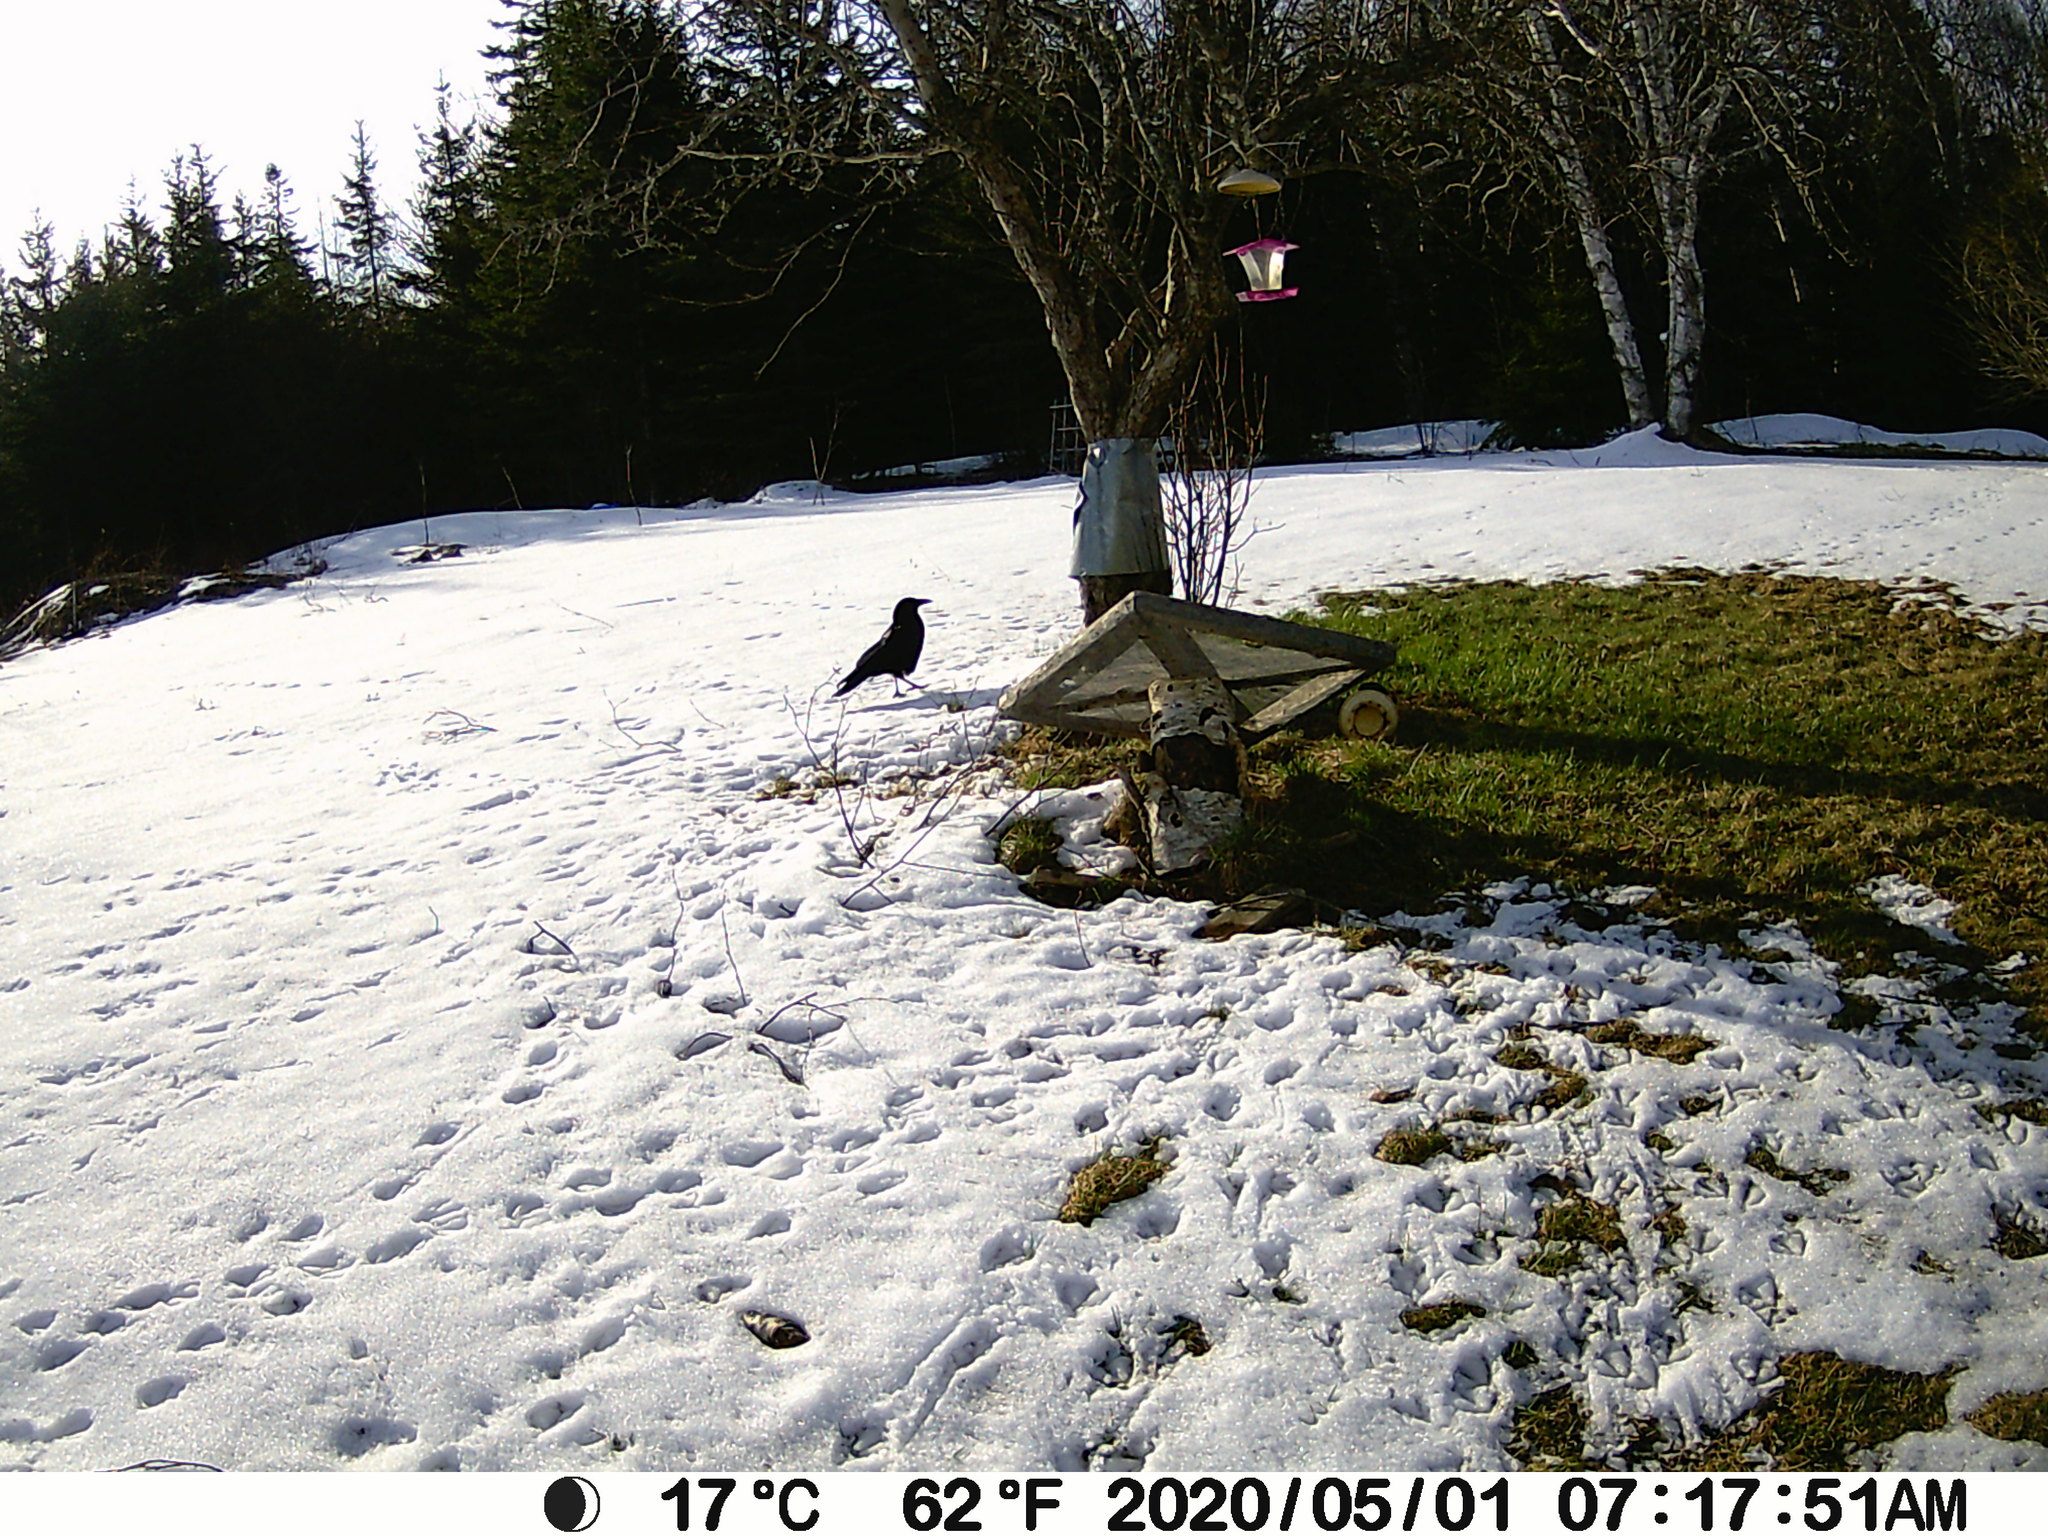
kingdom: Animalia
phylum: Chordata
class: Aves
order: Passeriformes
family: Corvidae
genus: Corvus
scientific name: Corvus brachyrhynchos
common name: American crow
